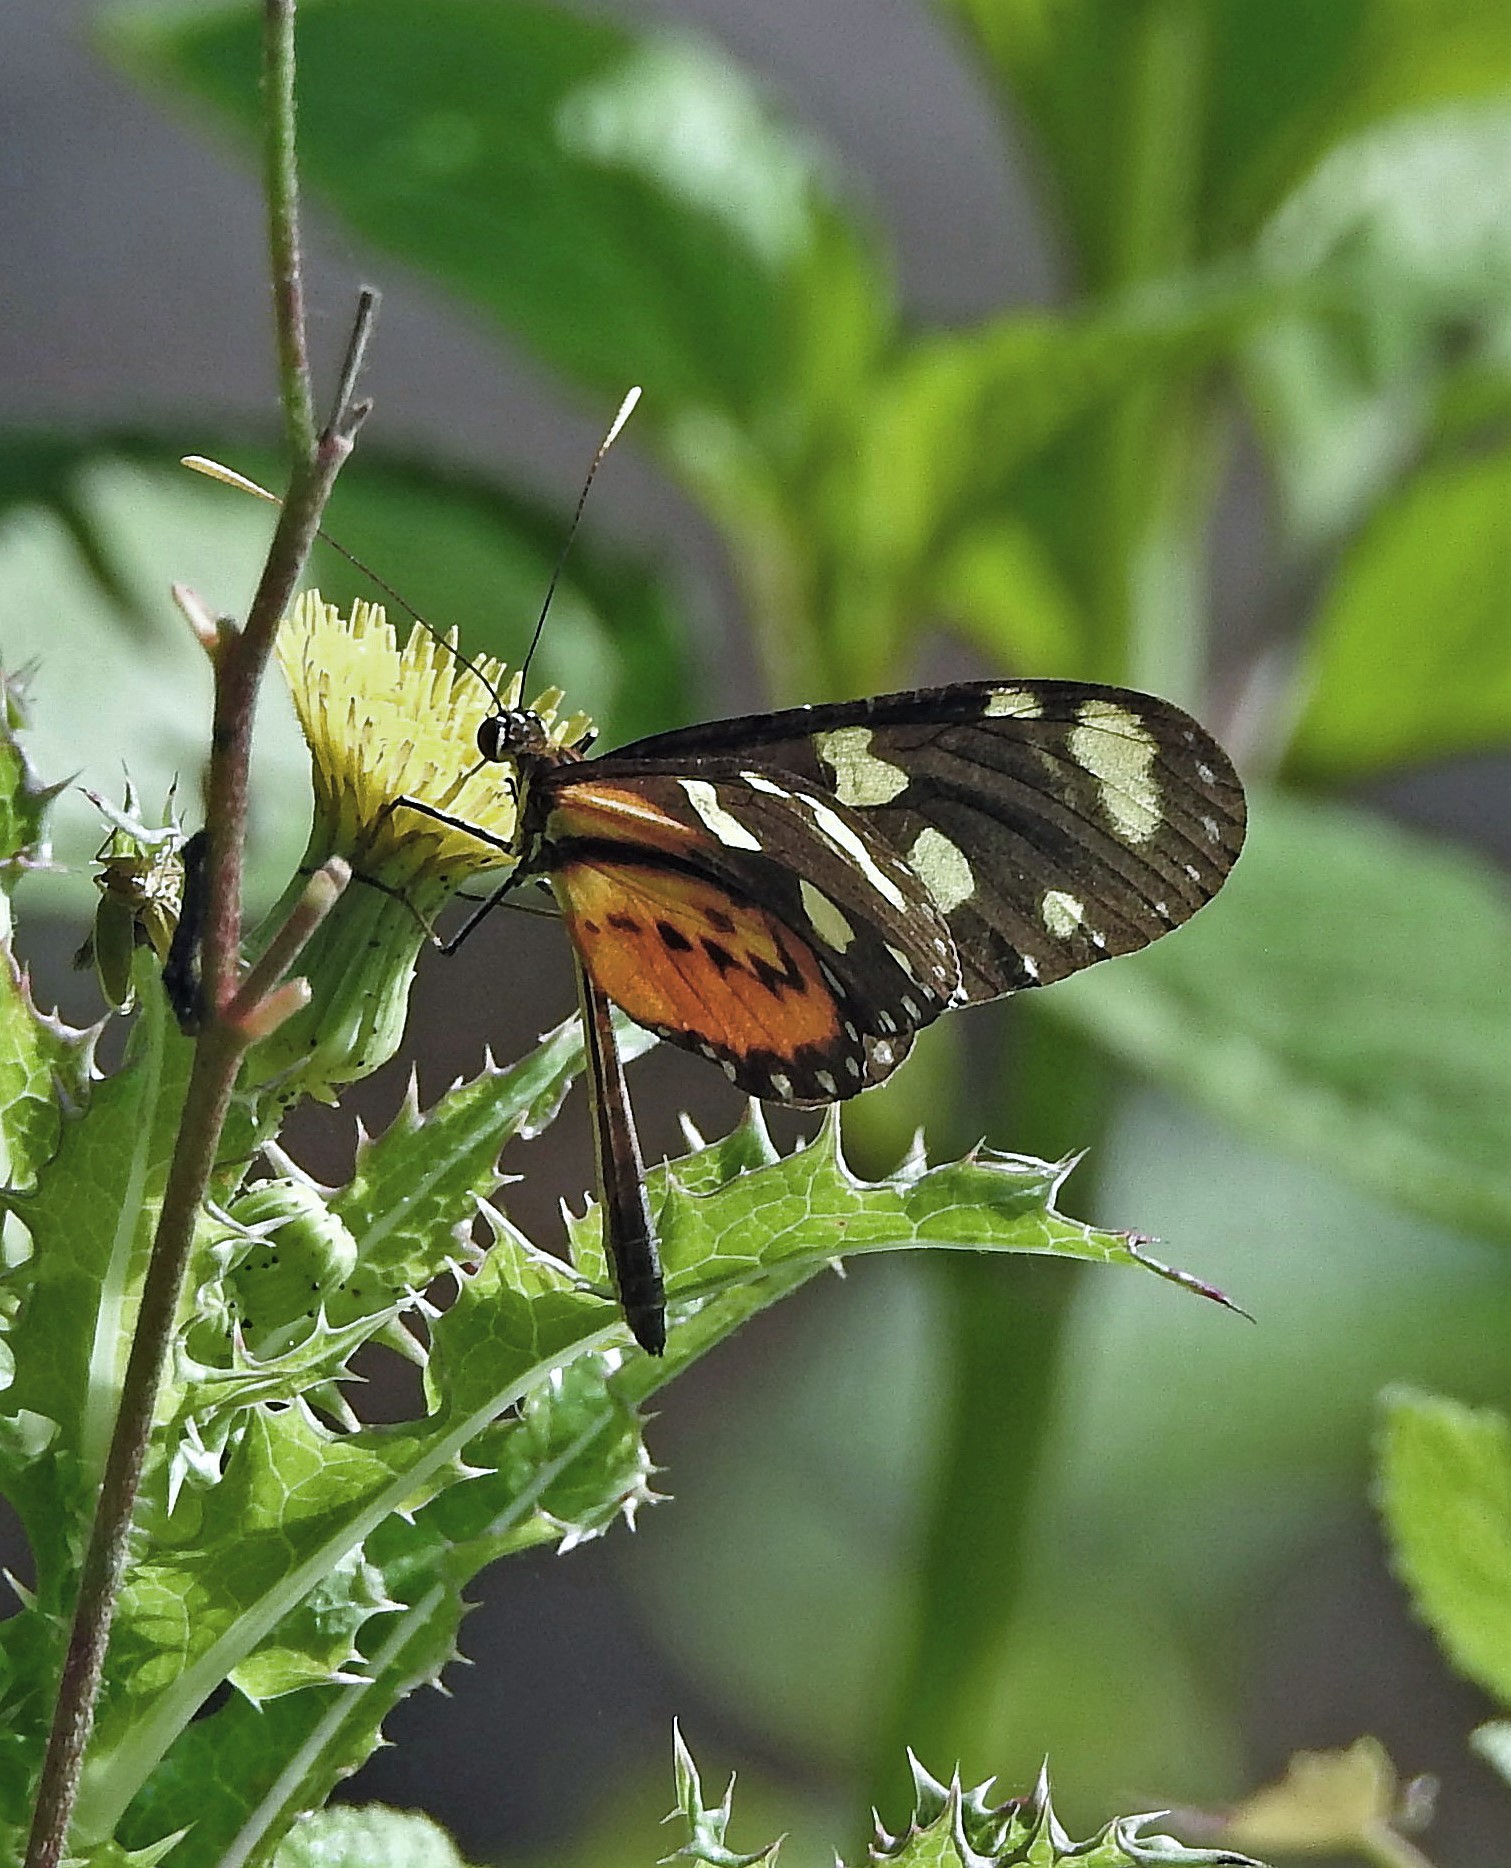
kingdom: Animalia
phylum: Arthropoda
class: Insecta
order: Lepidoptera
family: Nymphalidae
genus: Mechanitis
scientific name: Mechanitis lysimnia
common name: Lysimnia tigerwing
